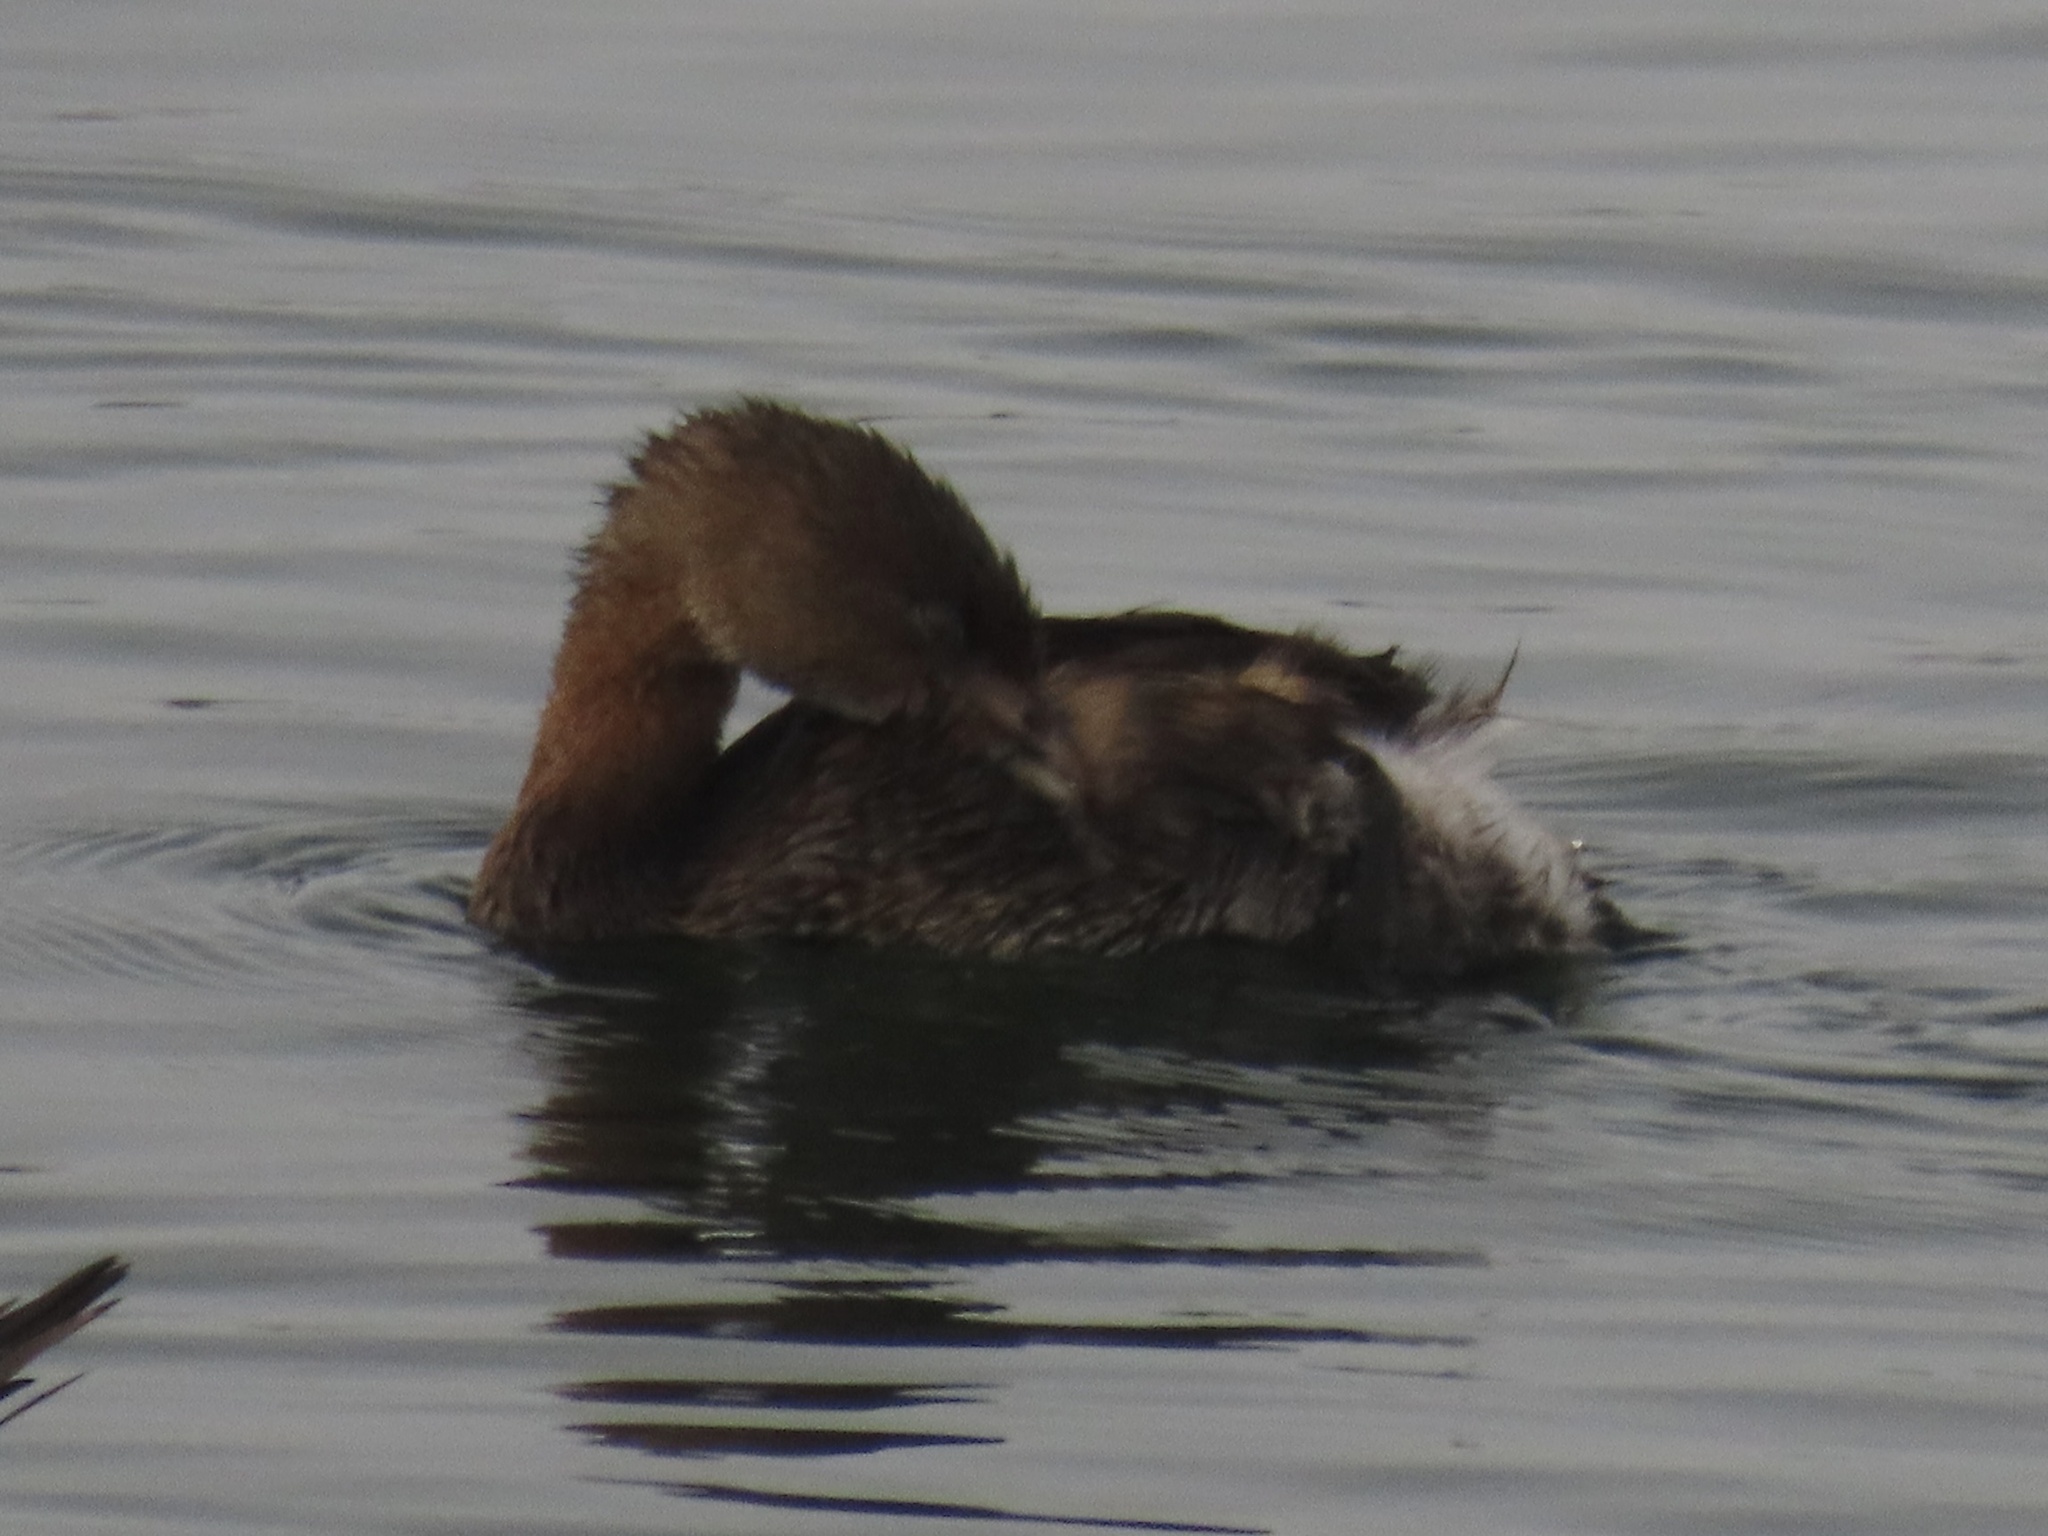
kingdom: Animalia
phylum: Chordata
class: Aves
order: Podicipediformes
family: Podicipedidae
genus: Podilymbus
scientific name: Podilymbus podiceps
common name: Pied-billed grebe
